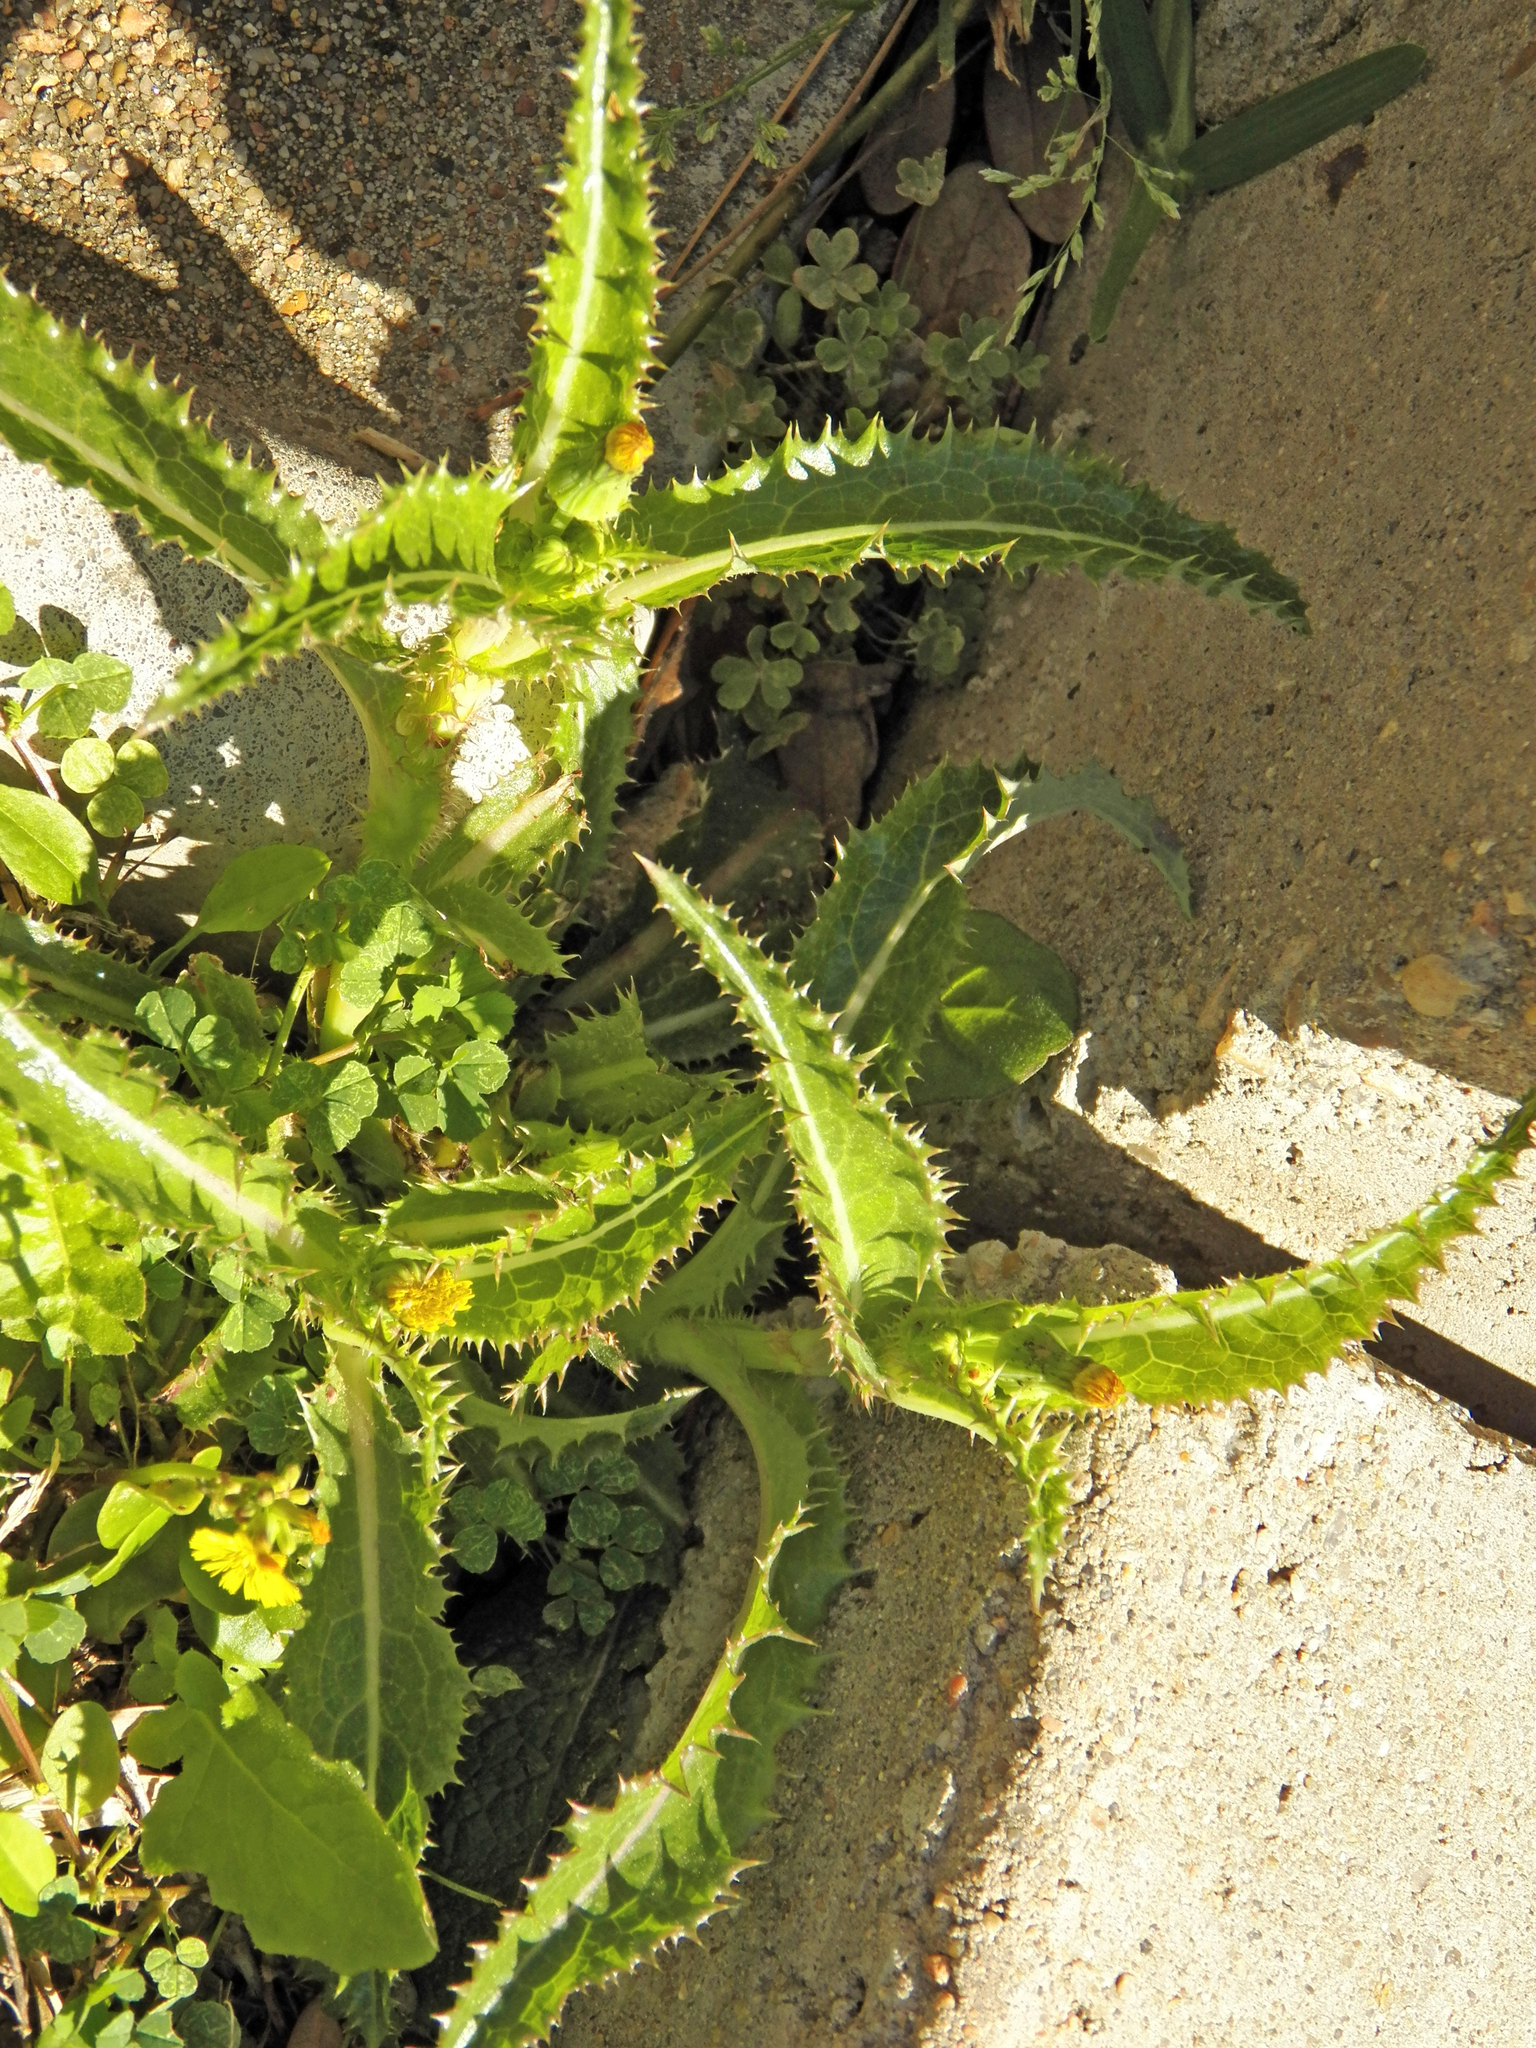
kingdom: Plantae
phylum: Tracheophyta
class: Magnoliopsida
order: Asterales
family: Asteraceae
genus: Sonchus
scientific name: Sonchus asper
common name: Prickly sow-thistle
